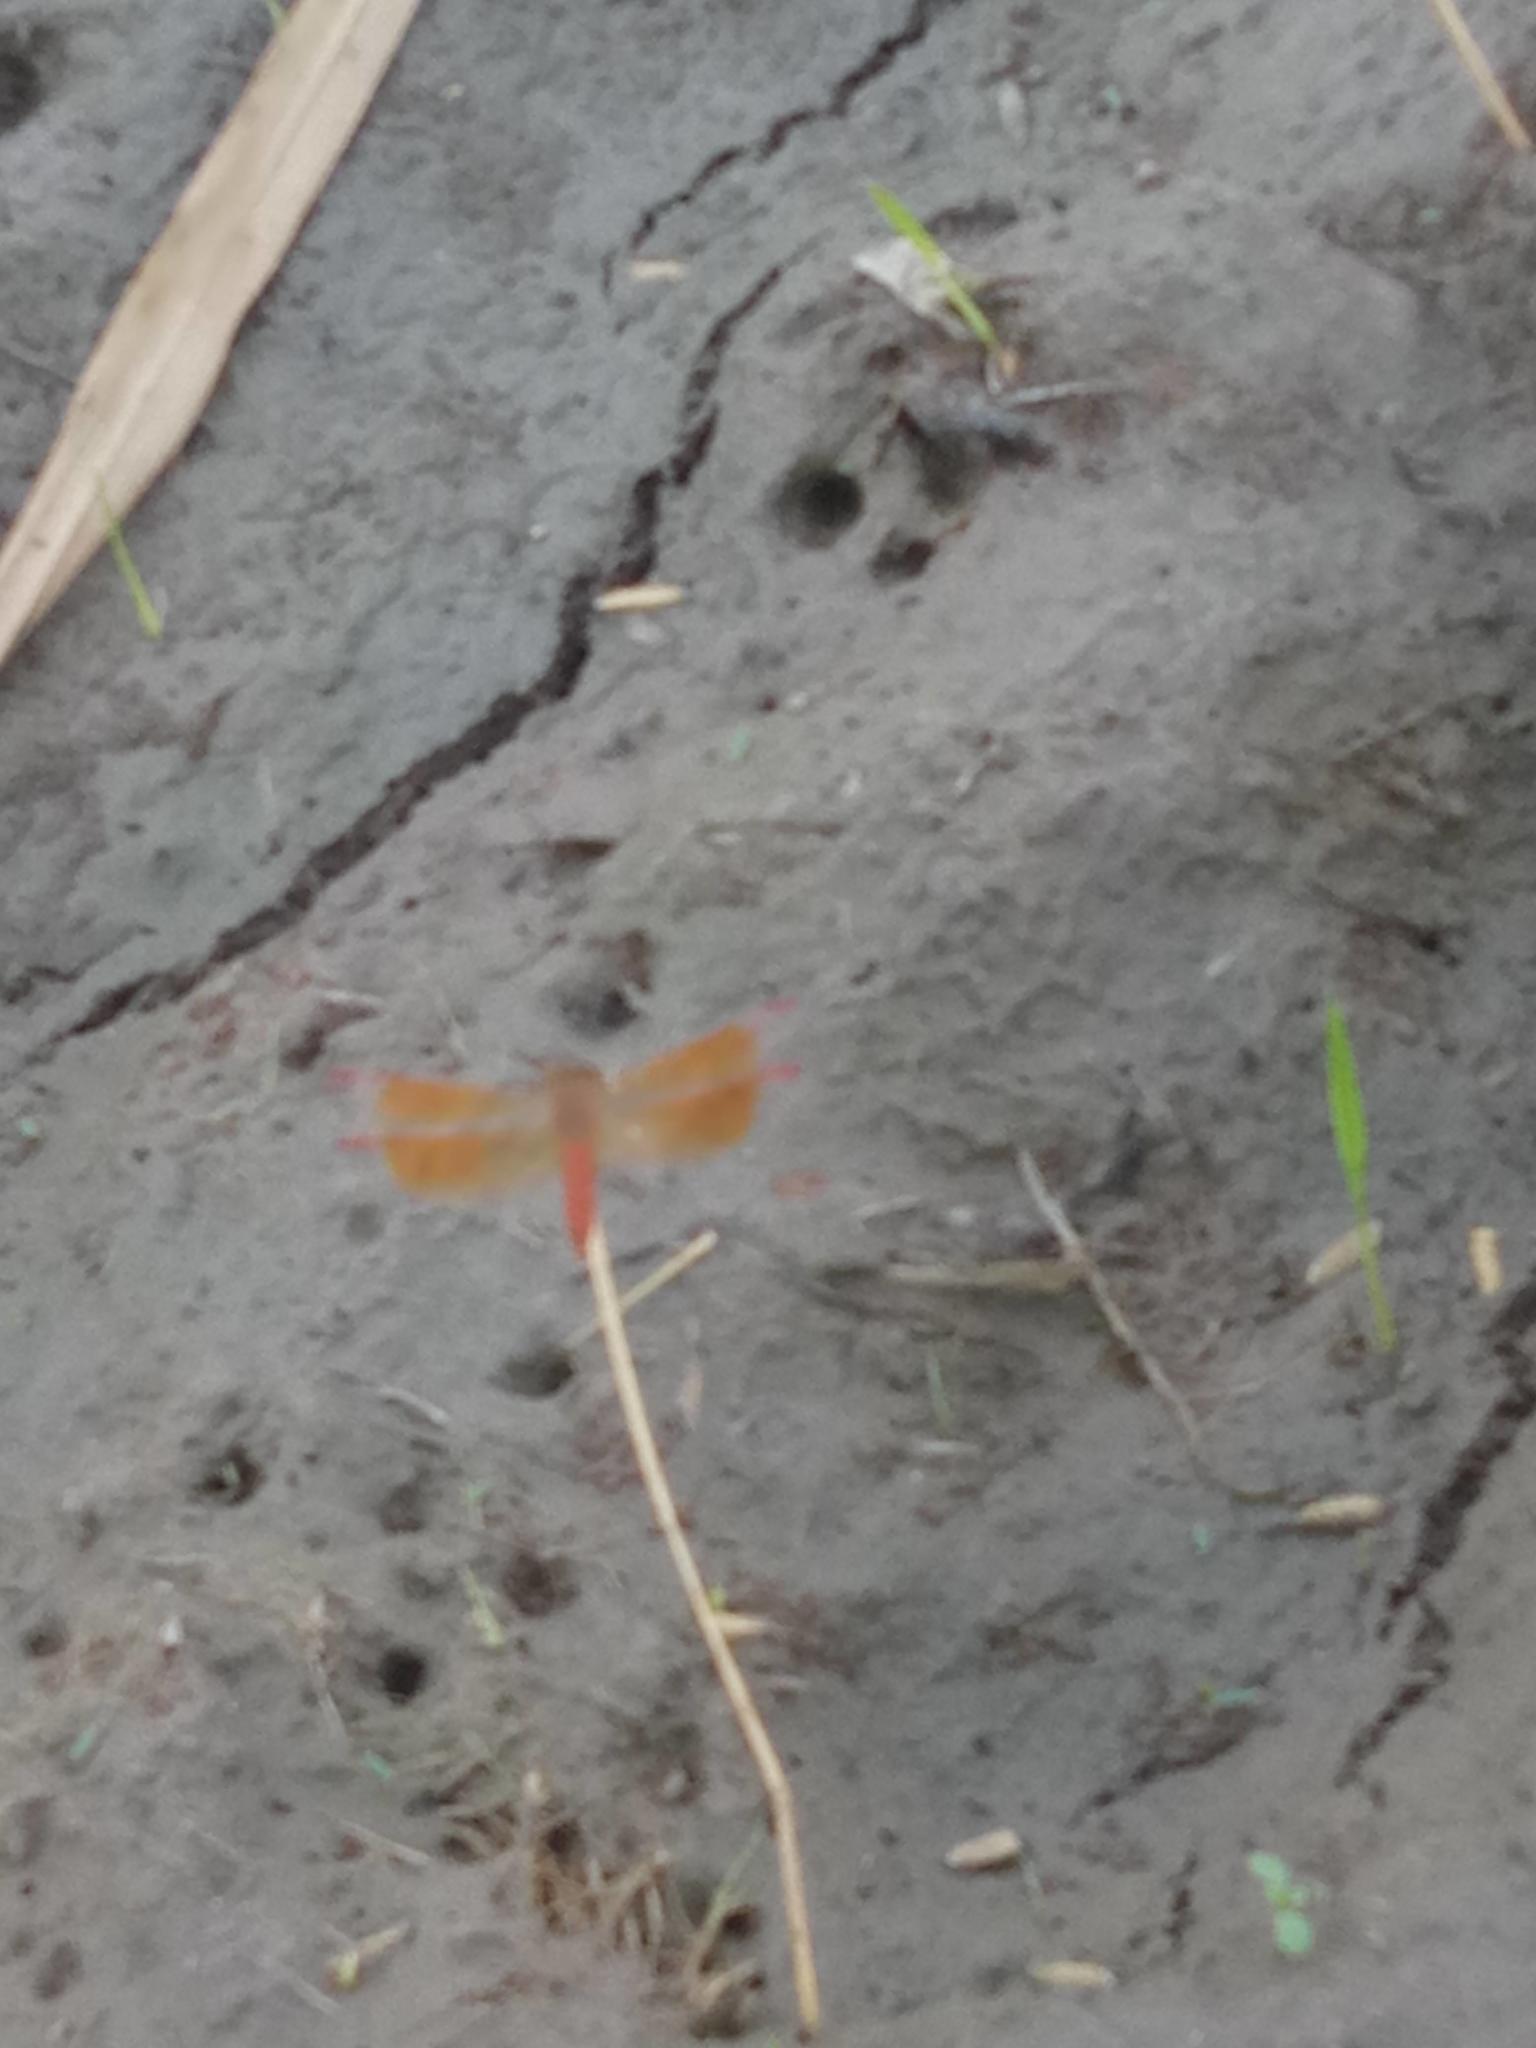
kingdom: Animalia
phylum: Arthropoda
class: Insecta
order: Odonata
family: Libellulidae
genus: Brachythemis
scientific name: Brachythemis contaminata
